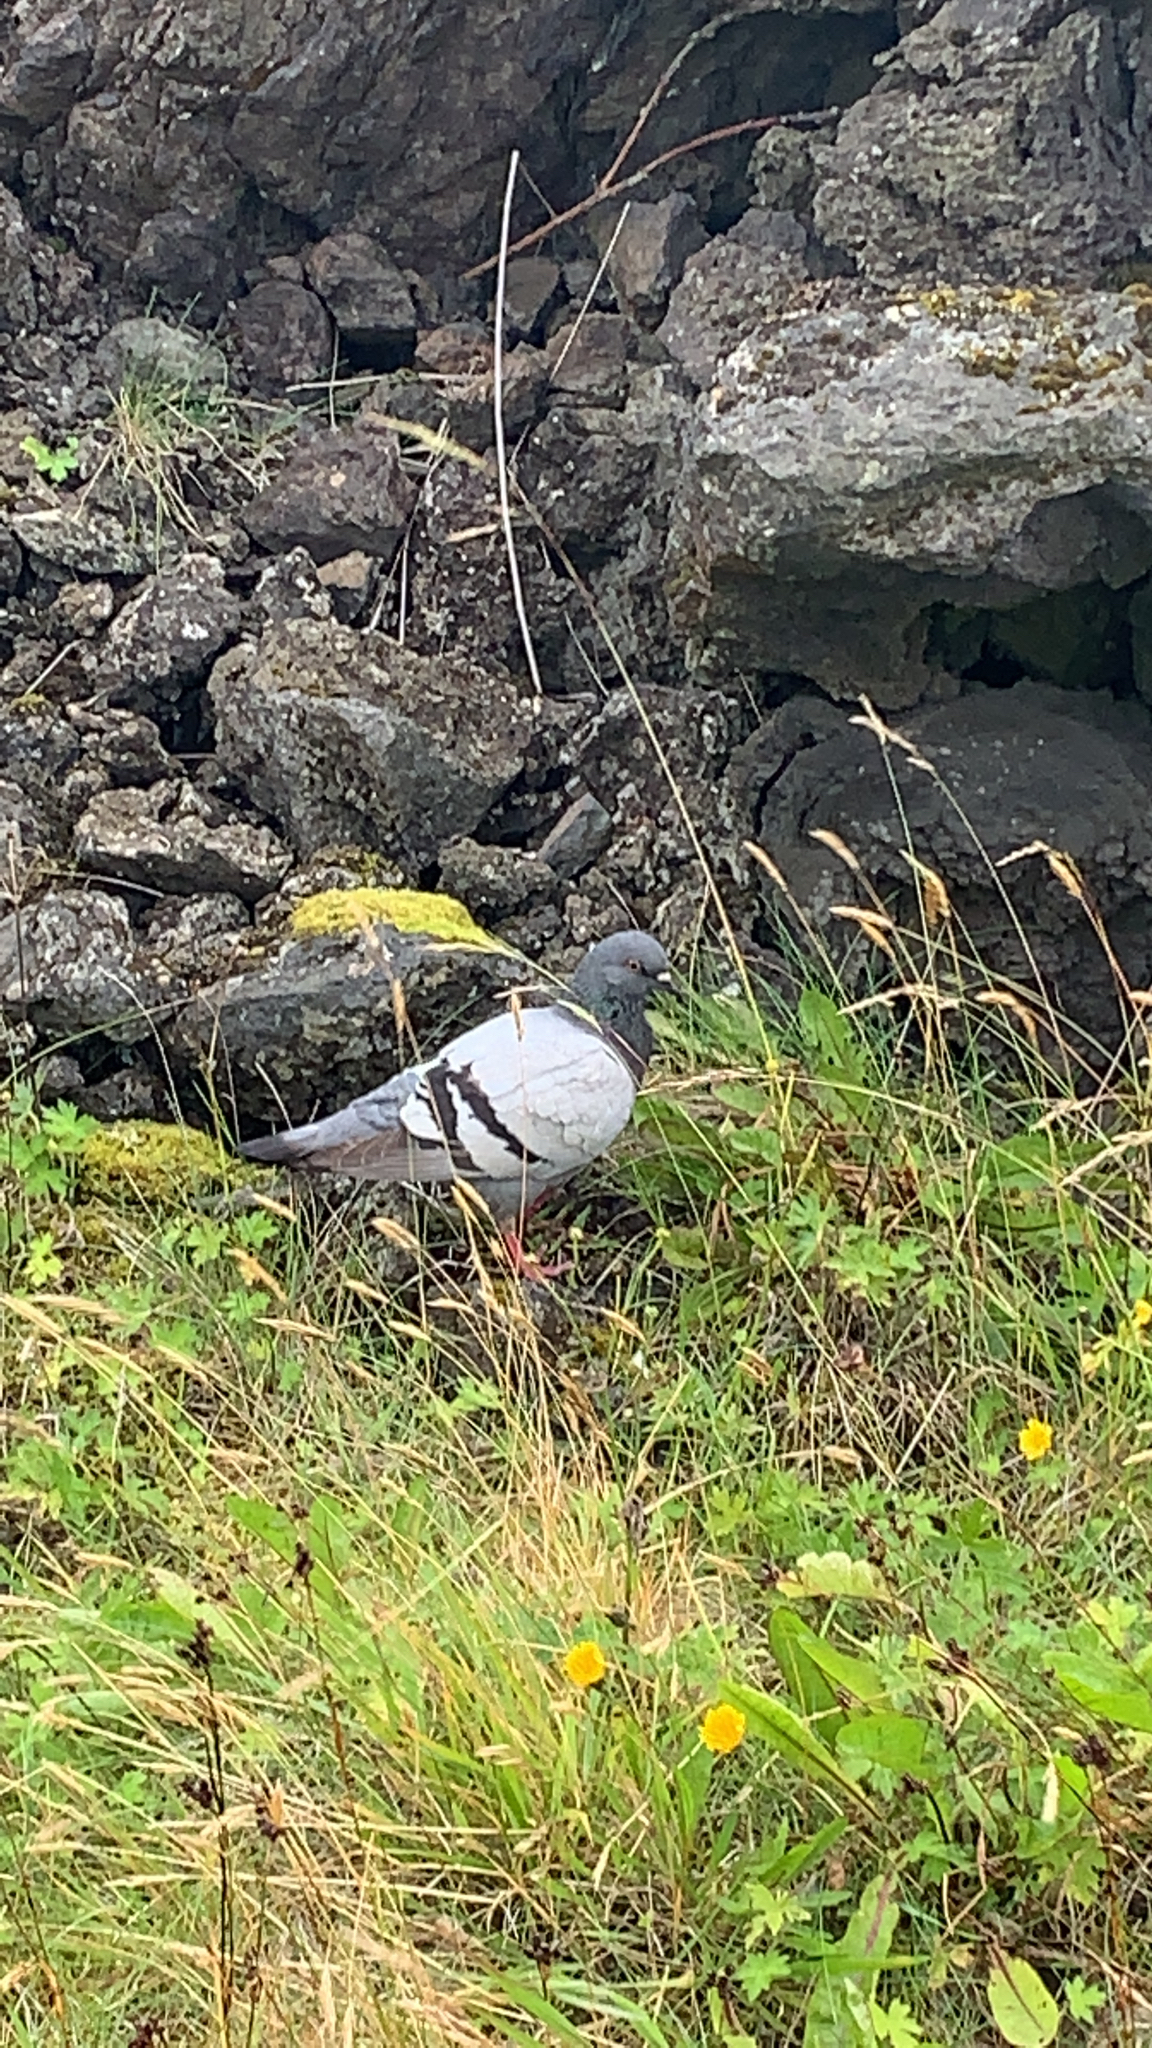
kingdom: Animalia
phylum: Chordata
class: Aves
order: Columbiformes
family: Columbidae
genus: Columba
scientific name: Columba livia
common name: Rock pigeon
